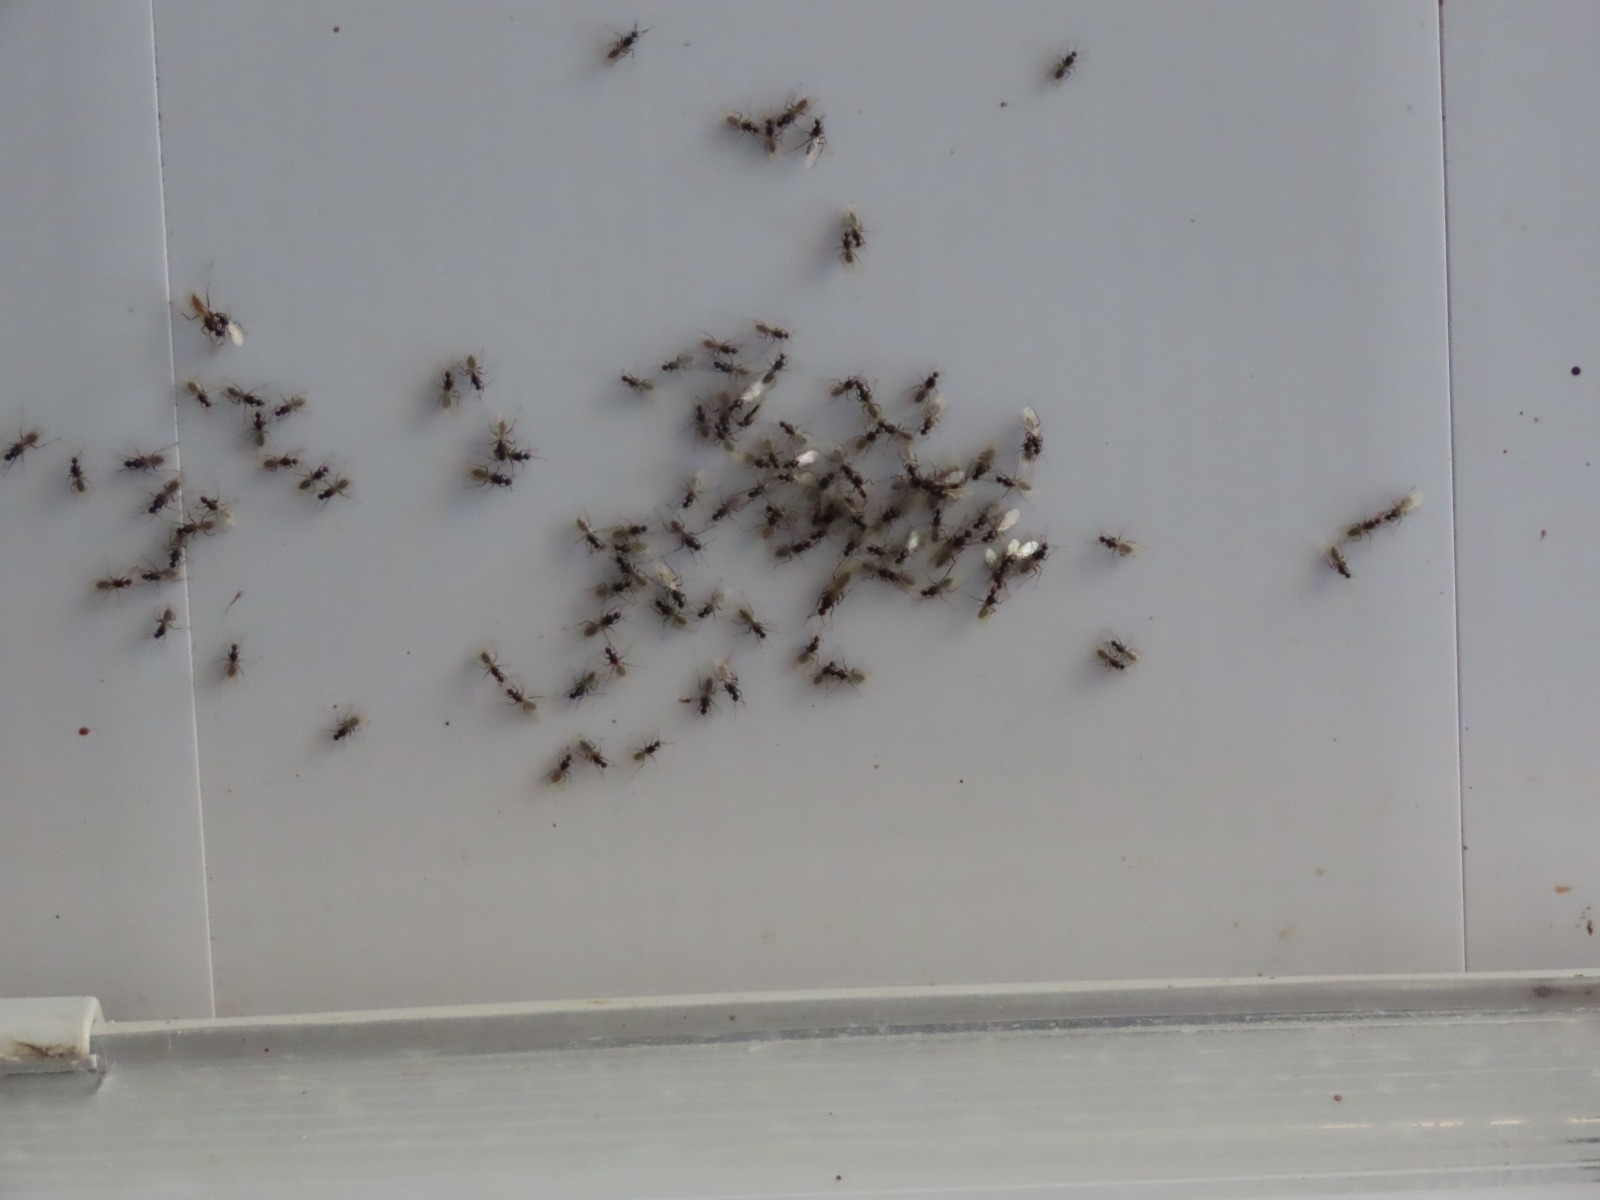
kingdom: Animalia
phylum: Arthropoda
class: Insecta
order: Hymenoptera
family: Formicidae
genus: Camponotus
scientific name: Camponotus
